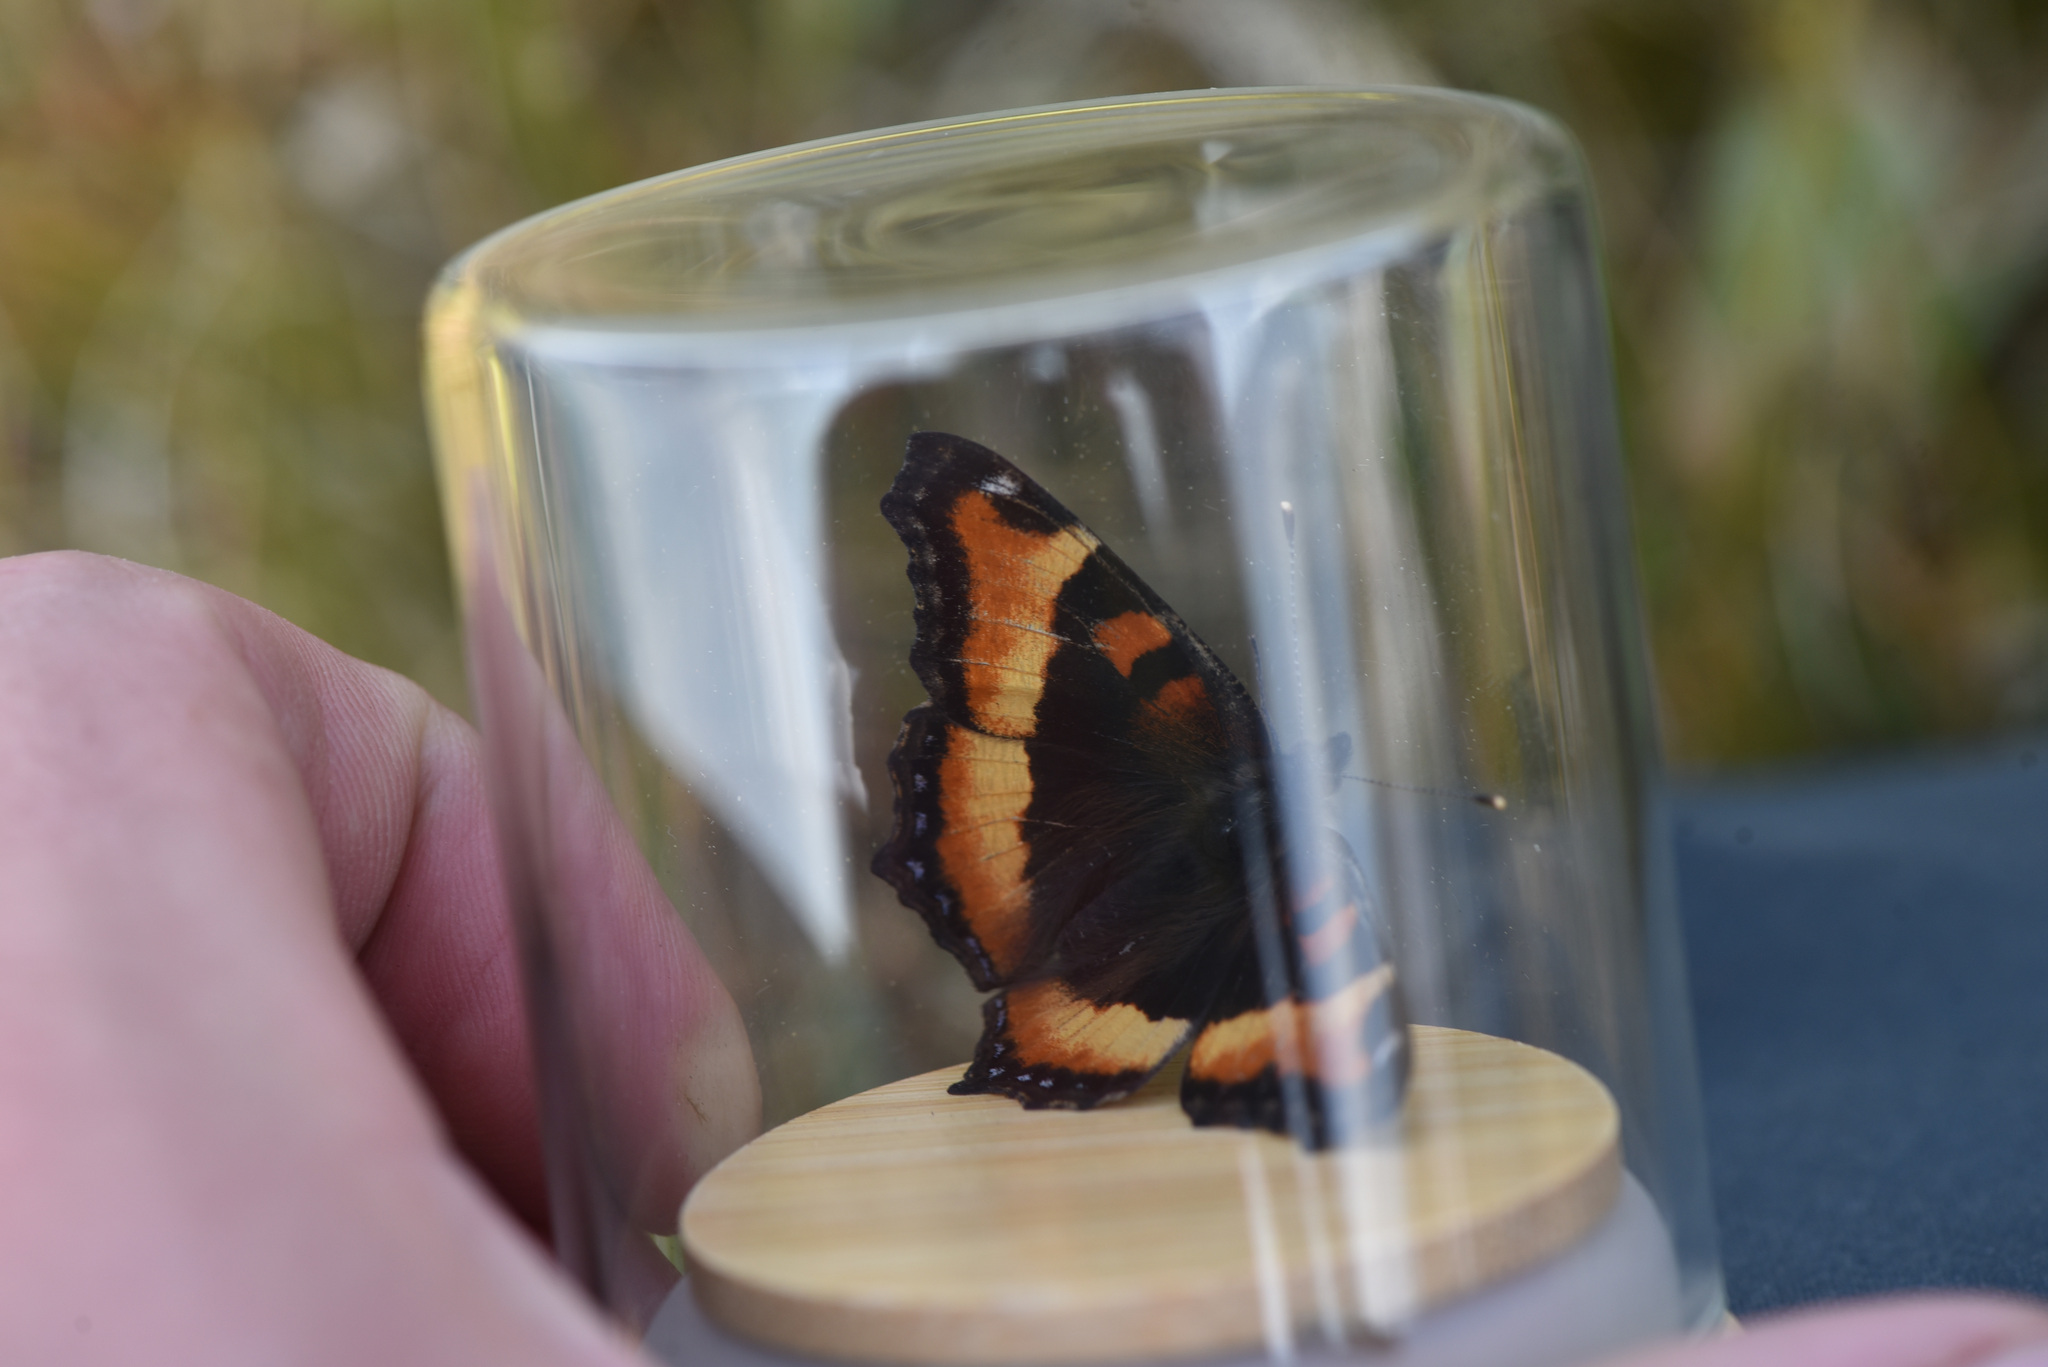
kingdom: Animalia
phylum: Arthropoda
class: Insecta
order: Lepidoptera
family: Nymphalidae
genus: Aglais
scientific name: Aglais milberti
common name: Milbert's tortoiseshell
